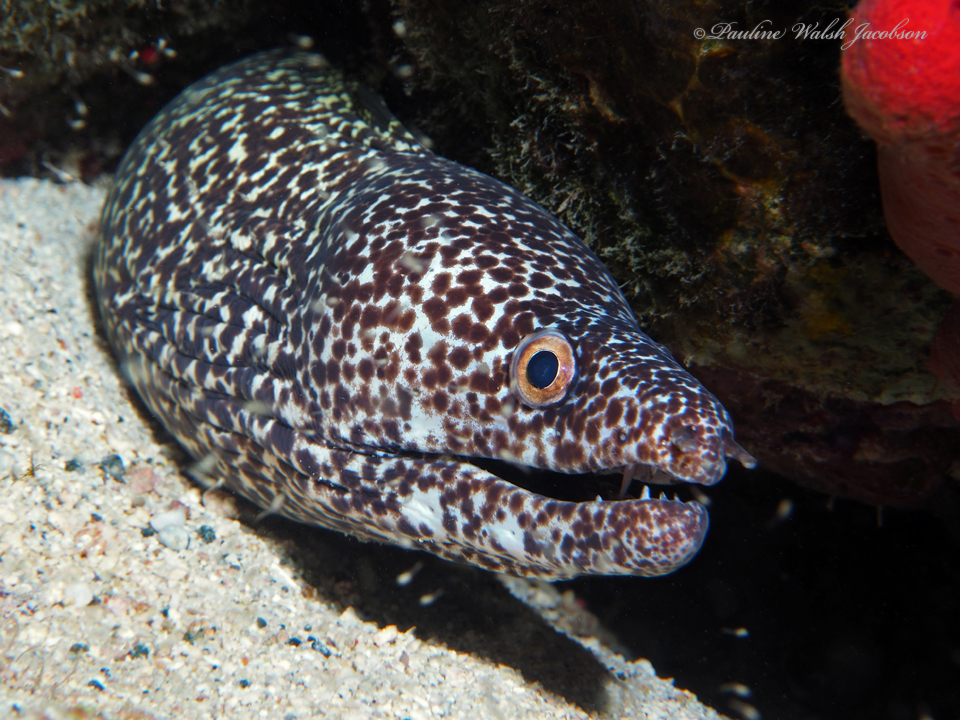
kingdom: Animalia
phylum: Chordata
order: Anguilliformes
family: Muraenidae
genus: Gymnothorax
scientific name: Gymnothorax moringa
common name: Spotted moray
